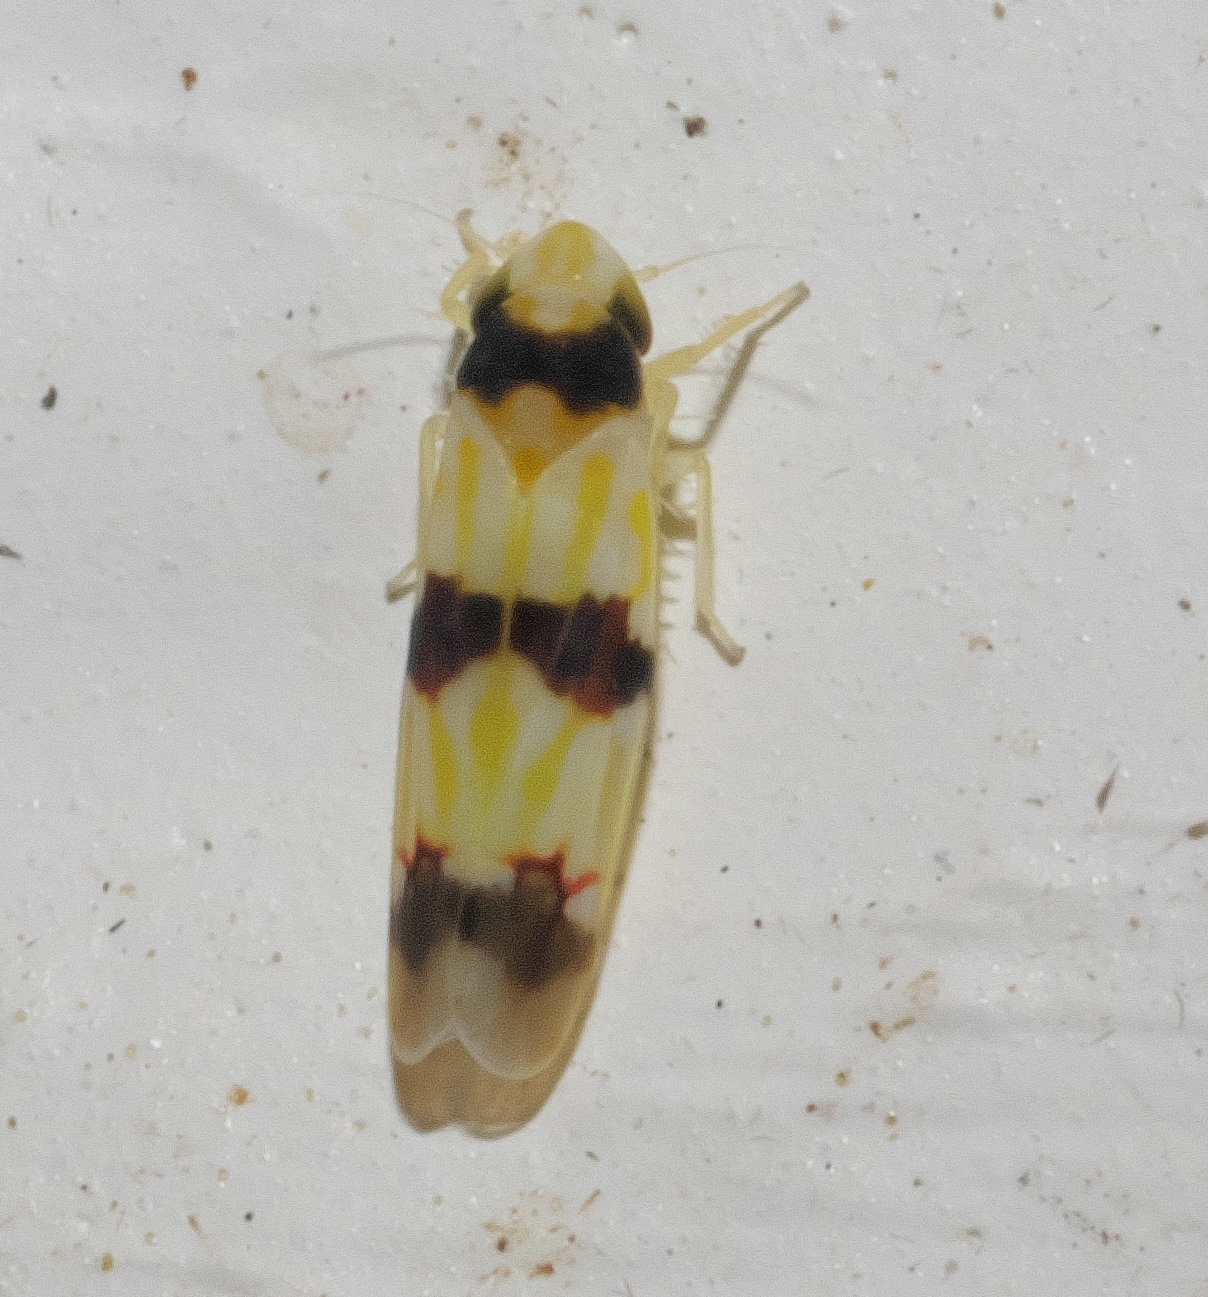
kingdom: Animalia
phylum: Arthropoda
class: Insecta
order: Hemiptera
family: Cicadellidae
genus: Erythroneura
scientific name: Erythroneura cymbium
